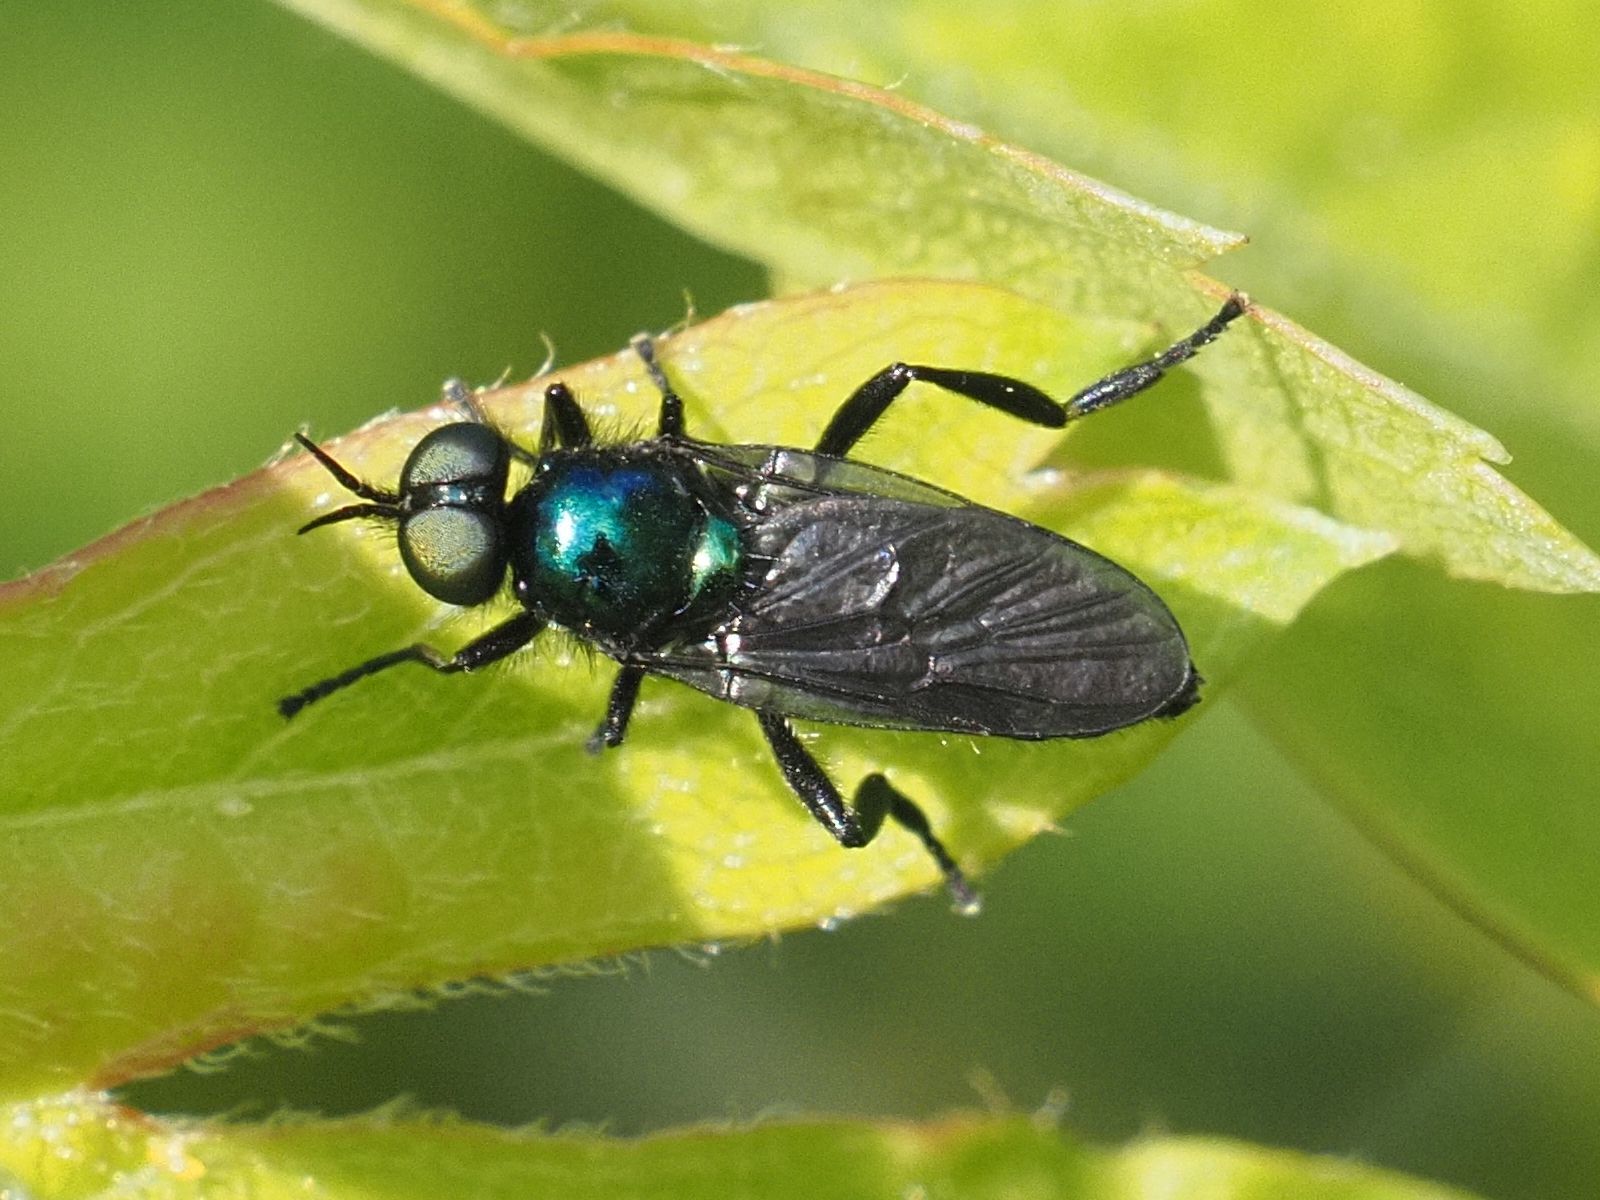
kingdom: Animalia
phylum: Arthropoda
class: Insecta
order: Diptera
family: Stratiomyidae
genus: Actina
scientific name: Actina chalybea
